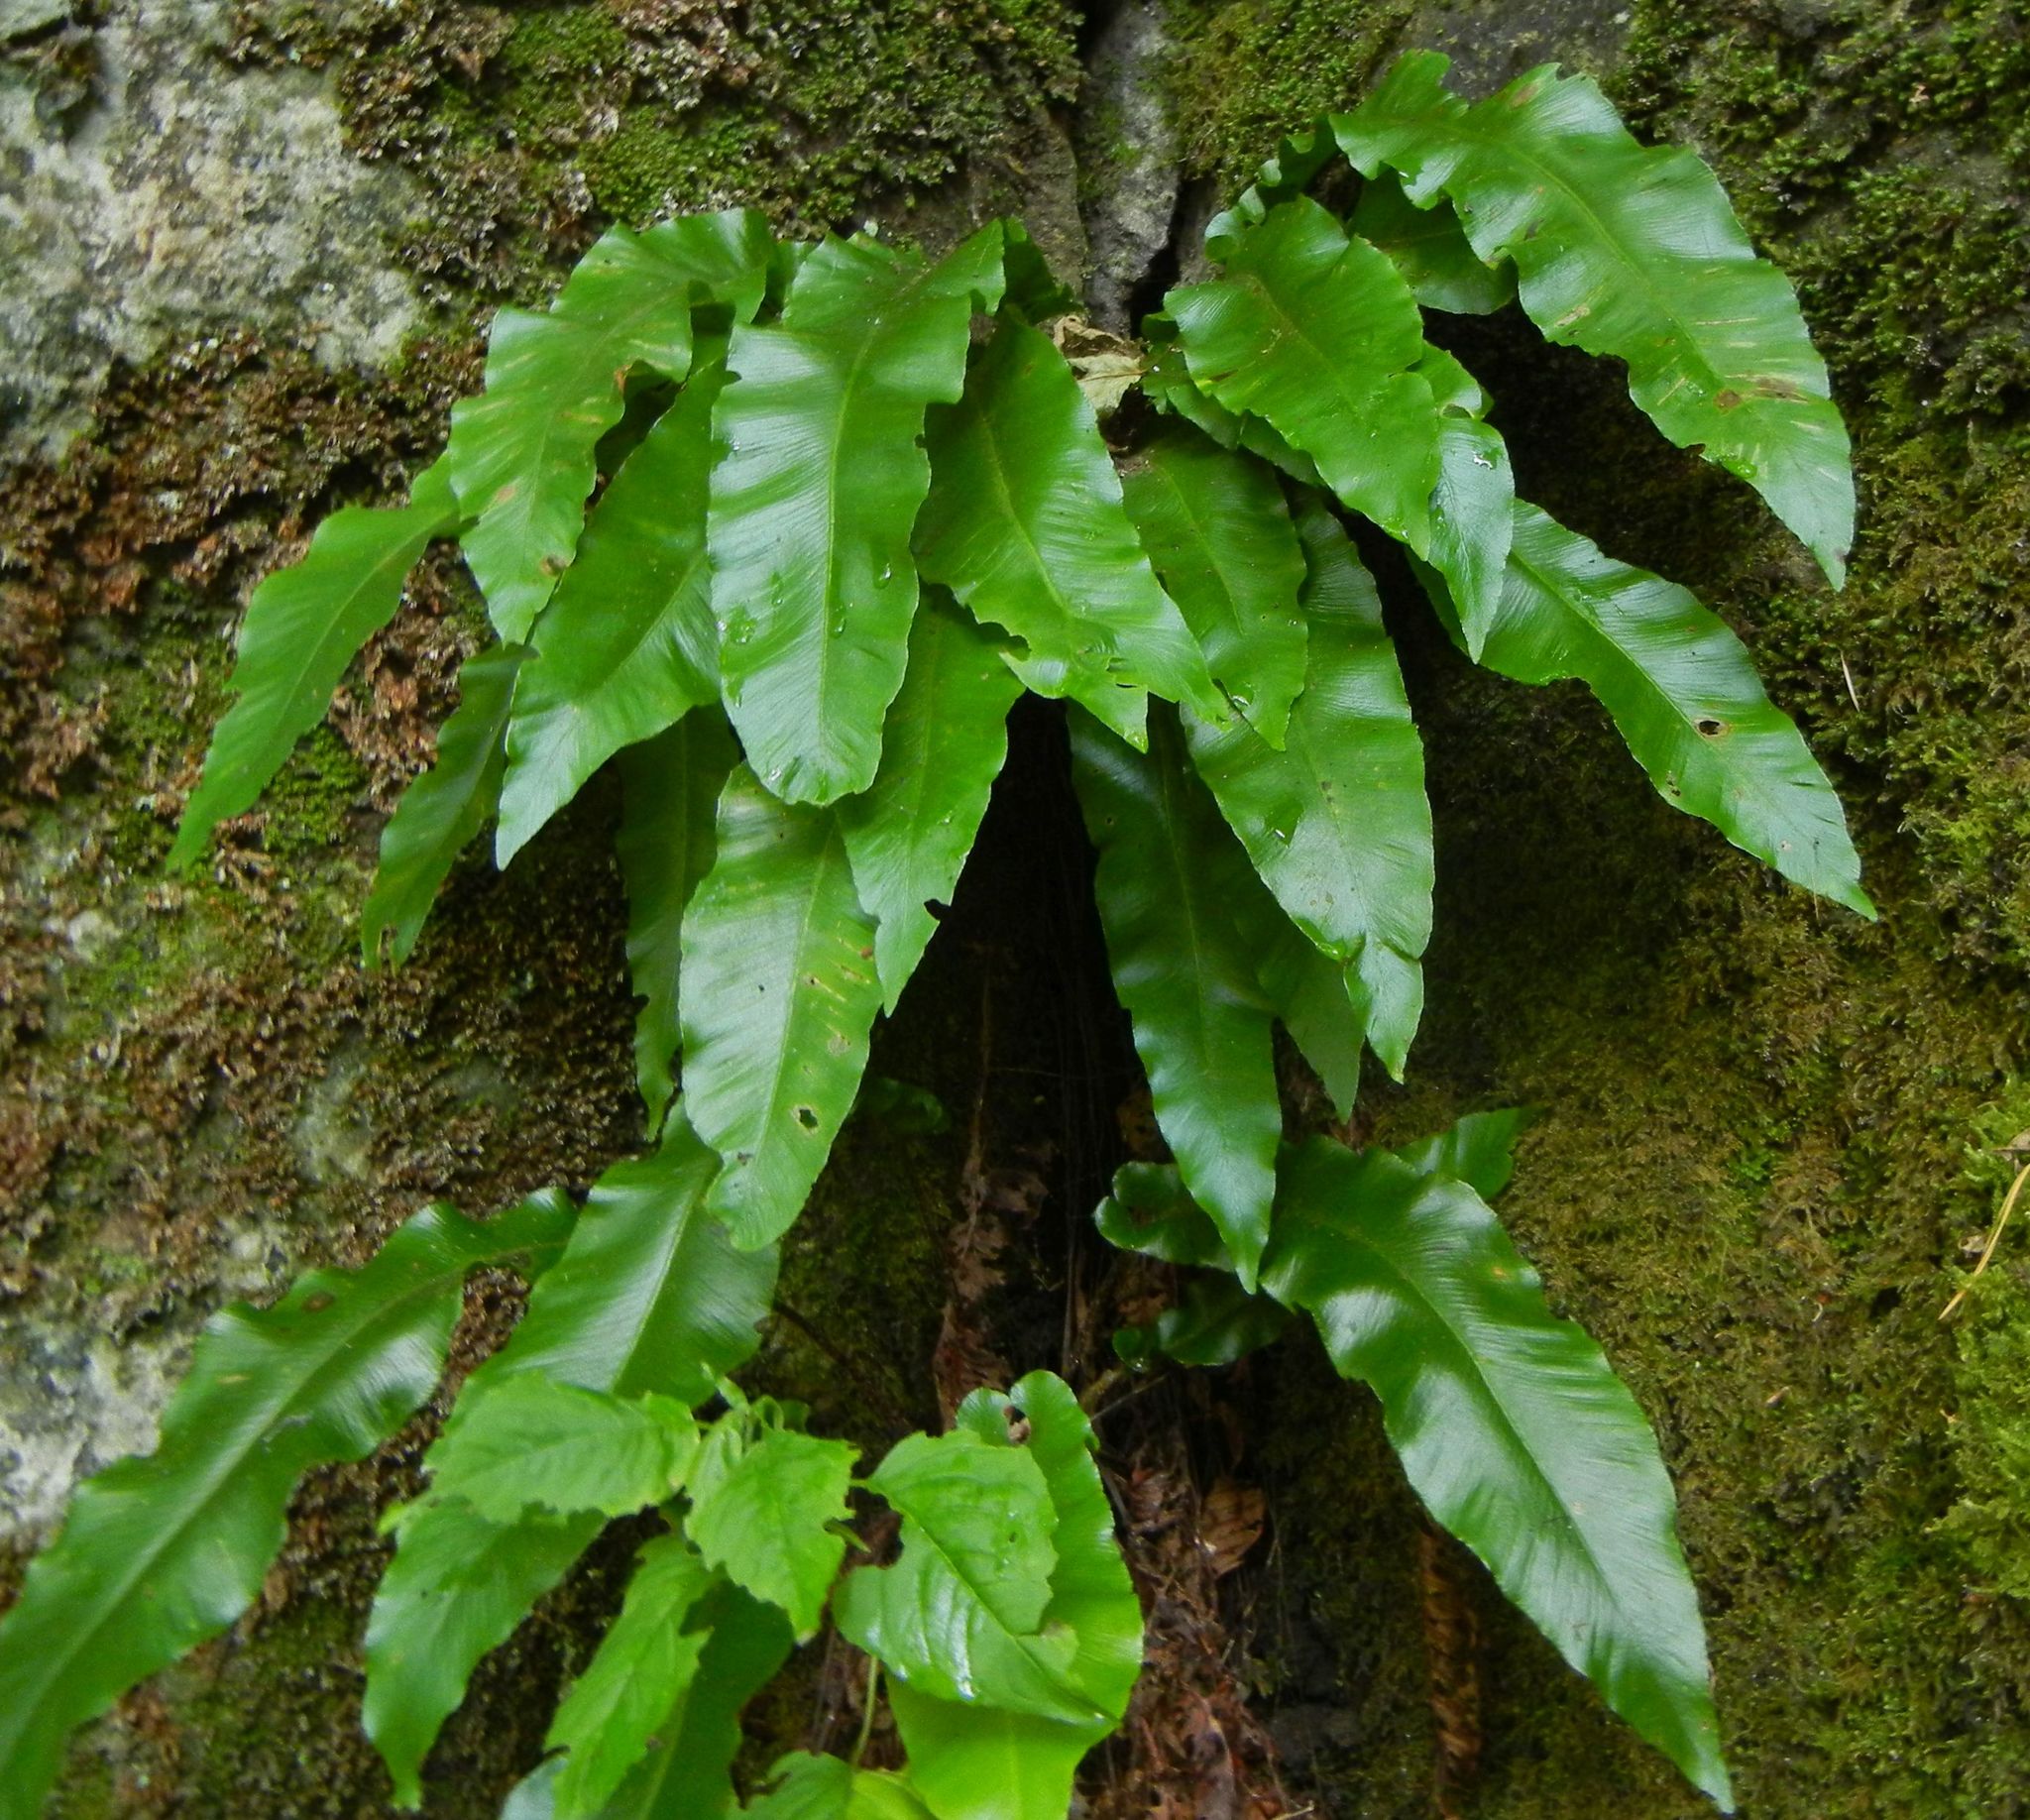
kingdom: Plantae
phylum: Tracheophyta
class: Polypodiopsida
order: Polypodiales
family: Aspleniaceae
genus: Asplenium
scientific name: Asplenium scolopendrium
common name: Hart's-tongue fern
